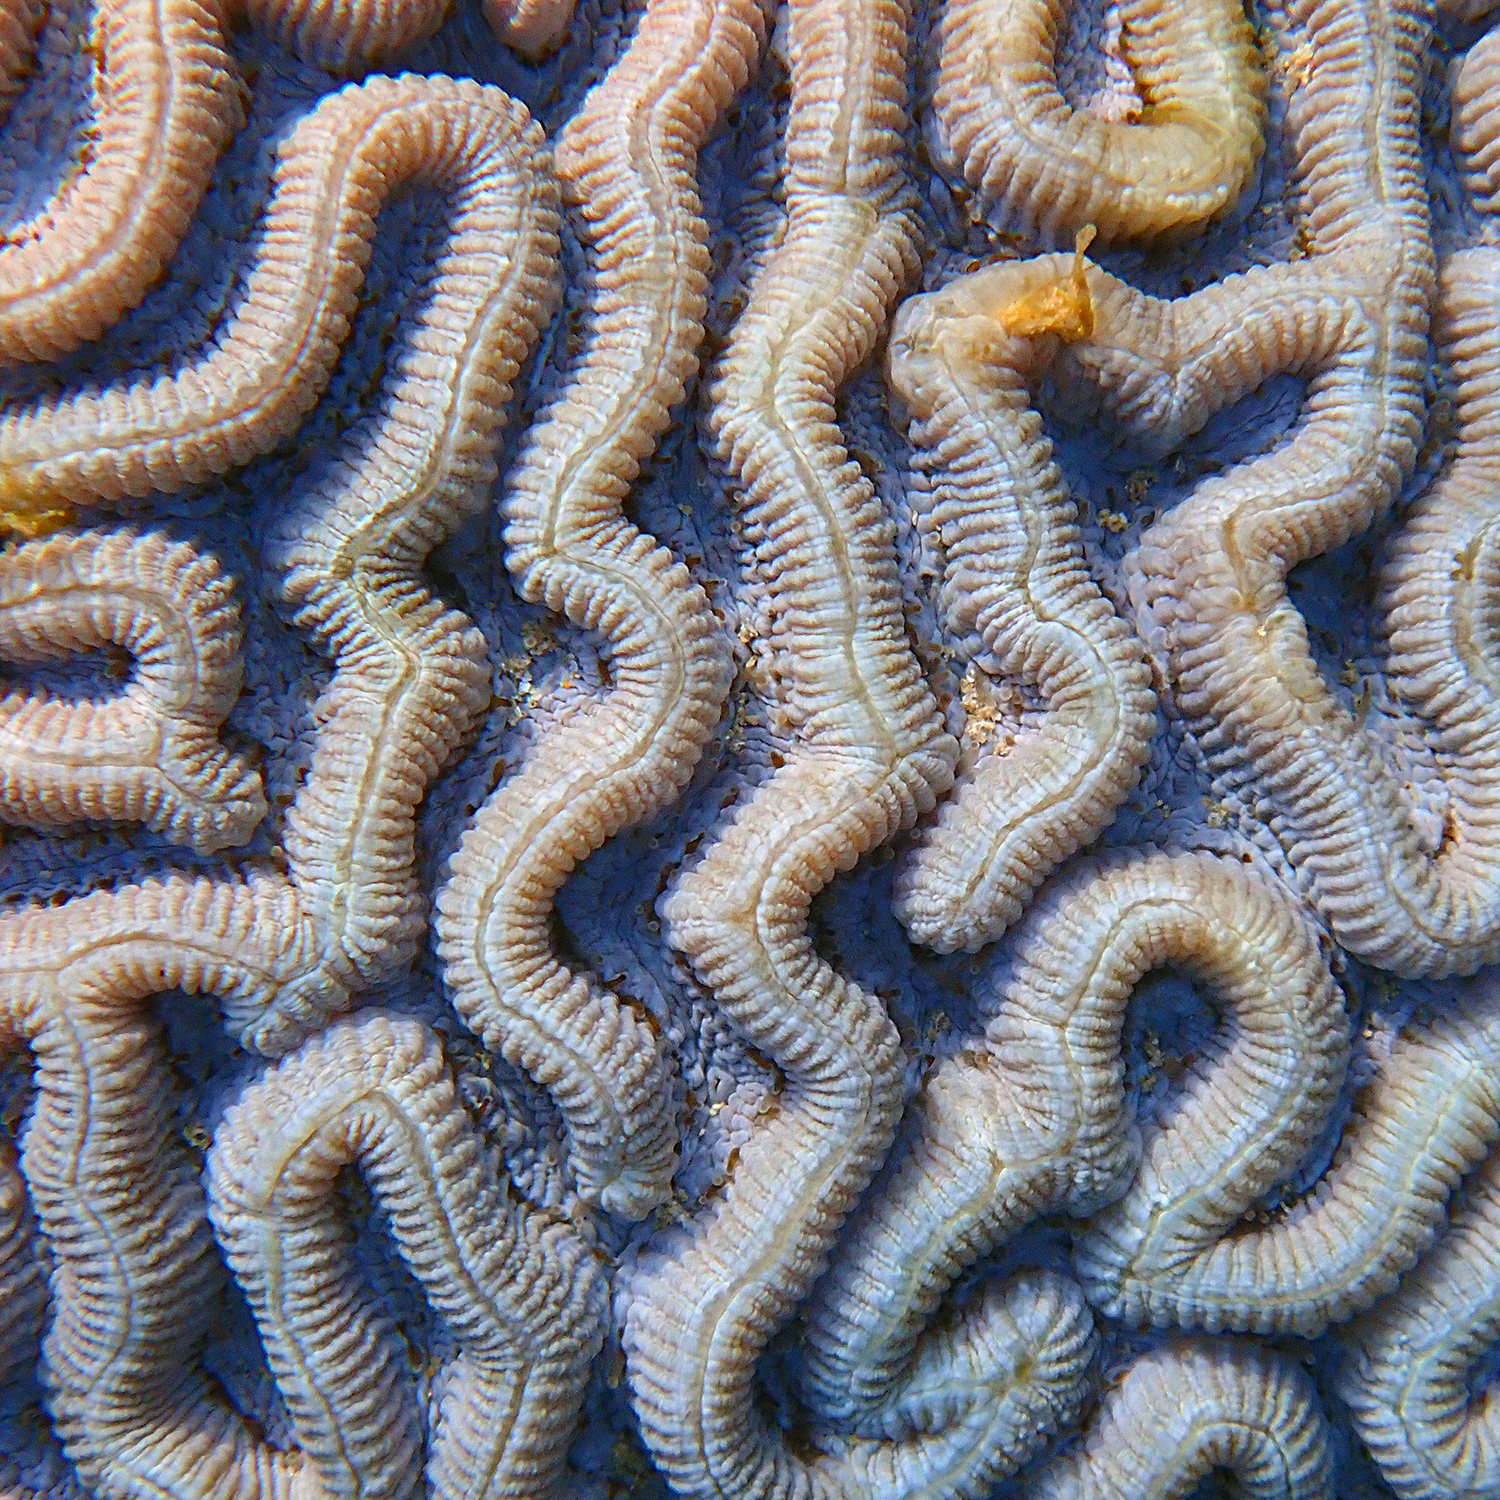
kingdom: Animalia
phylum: Cnidaria
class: Anthozoa
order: Scleractinia
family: Merulinidae
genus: Paragoniastrea
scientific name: Paragoniastrea australensis
